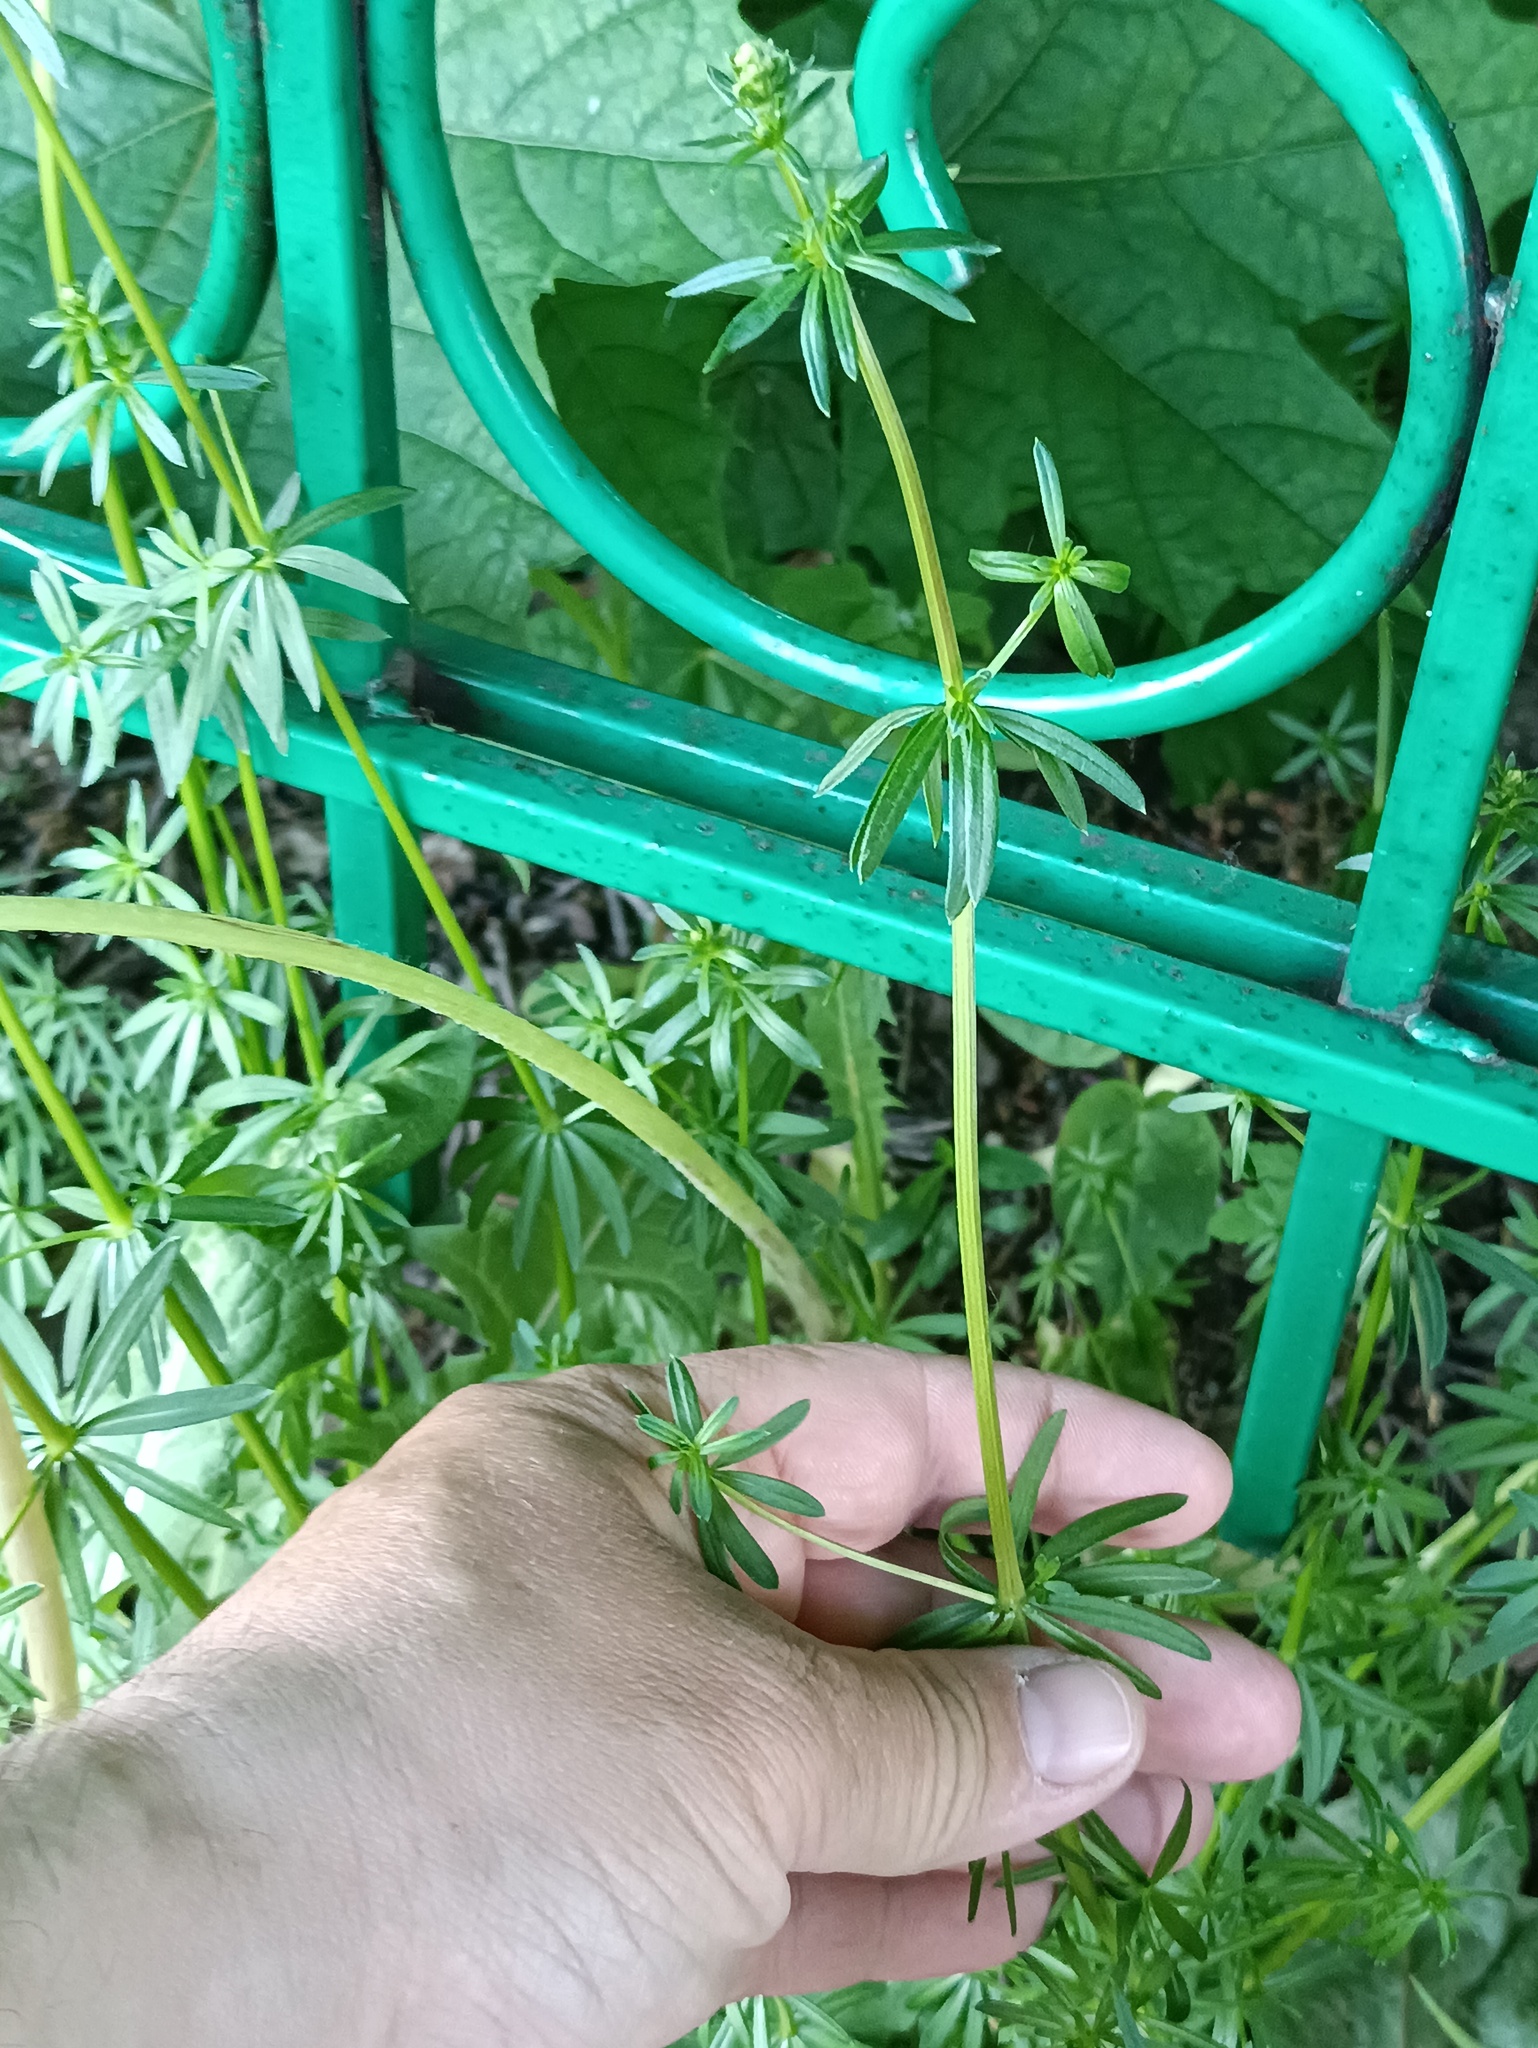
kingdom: Plantae
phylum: Tracheophyta
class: Magnoliopsida
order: Gentianales
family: Rubiaceae
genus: Galium
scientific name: Galium mollugo
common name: Hedge bedstraw
